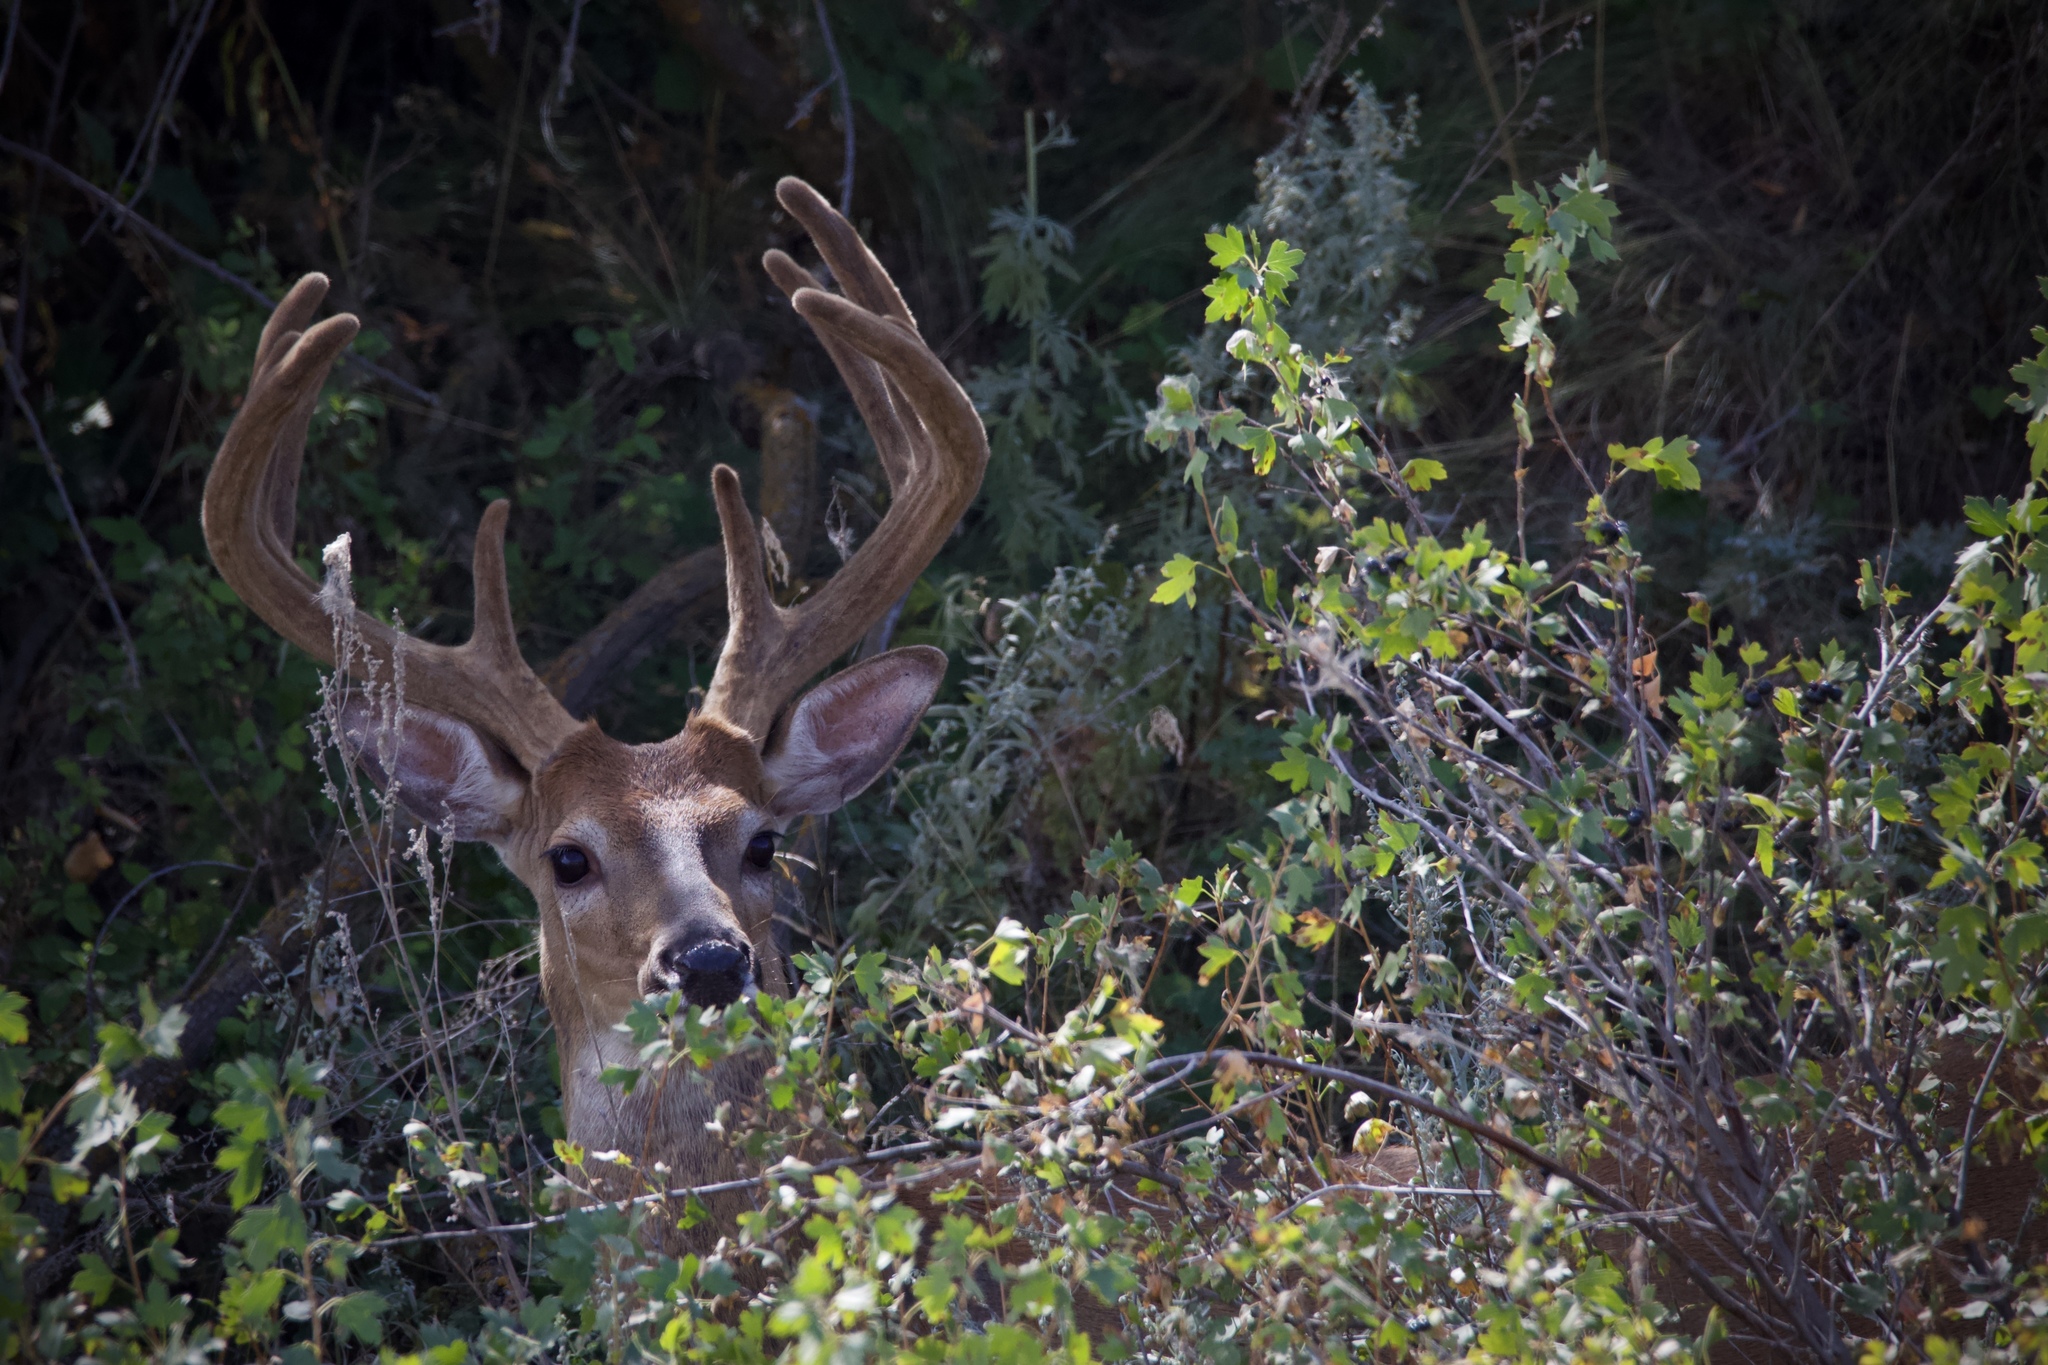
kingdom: Animalia
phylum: Chordata
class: Mammalia
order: Artiodactyla
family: Cervidae
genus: Odocoileus
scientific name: Odocoileus virginianus
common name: White-tailed deer
